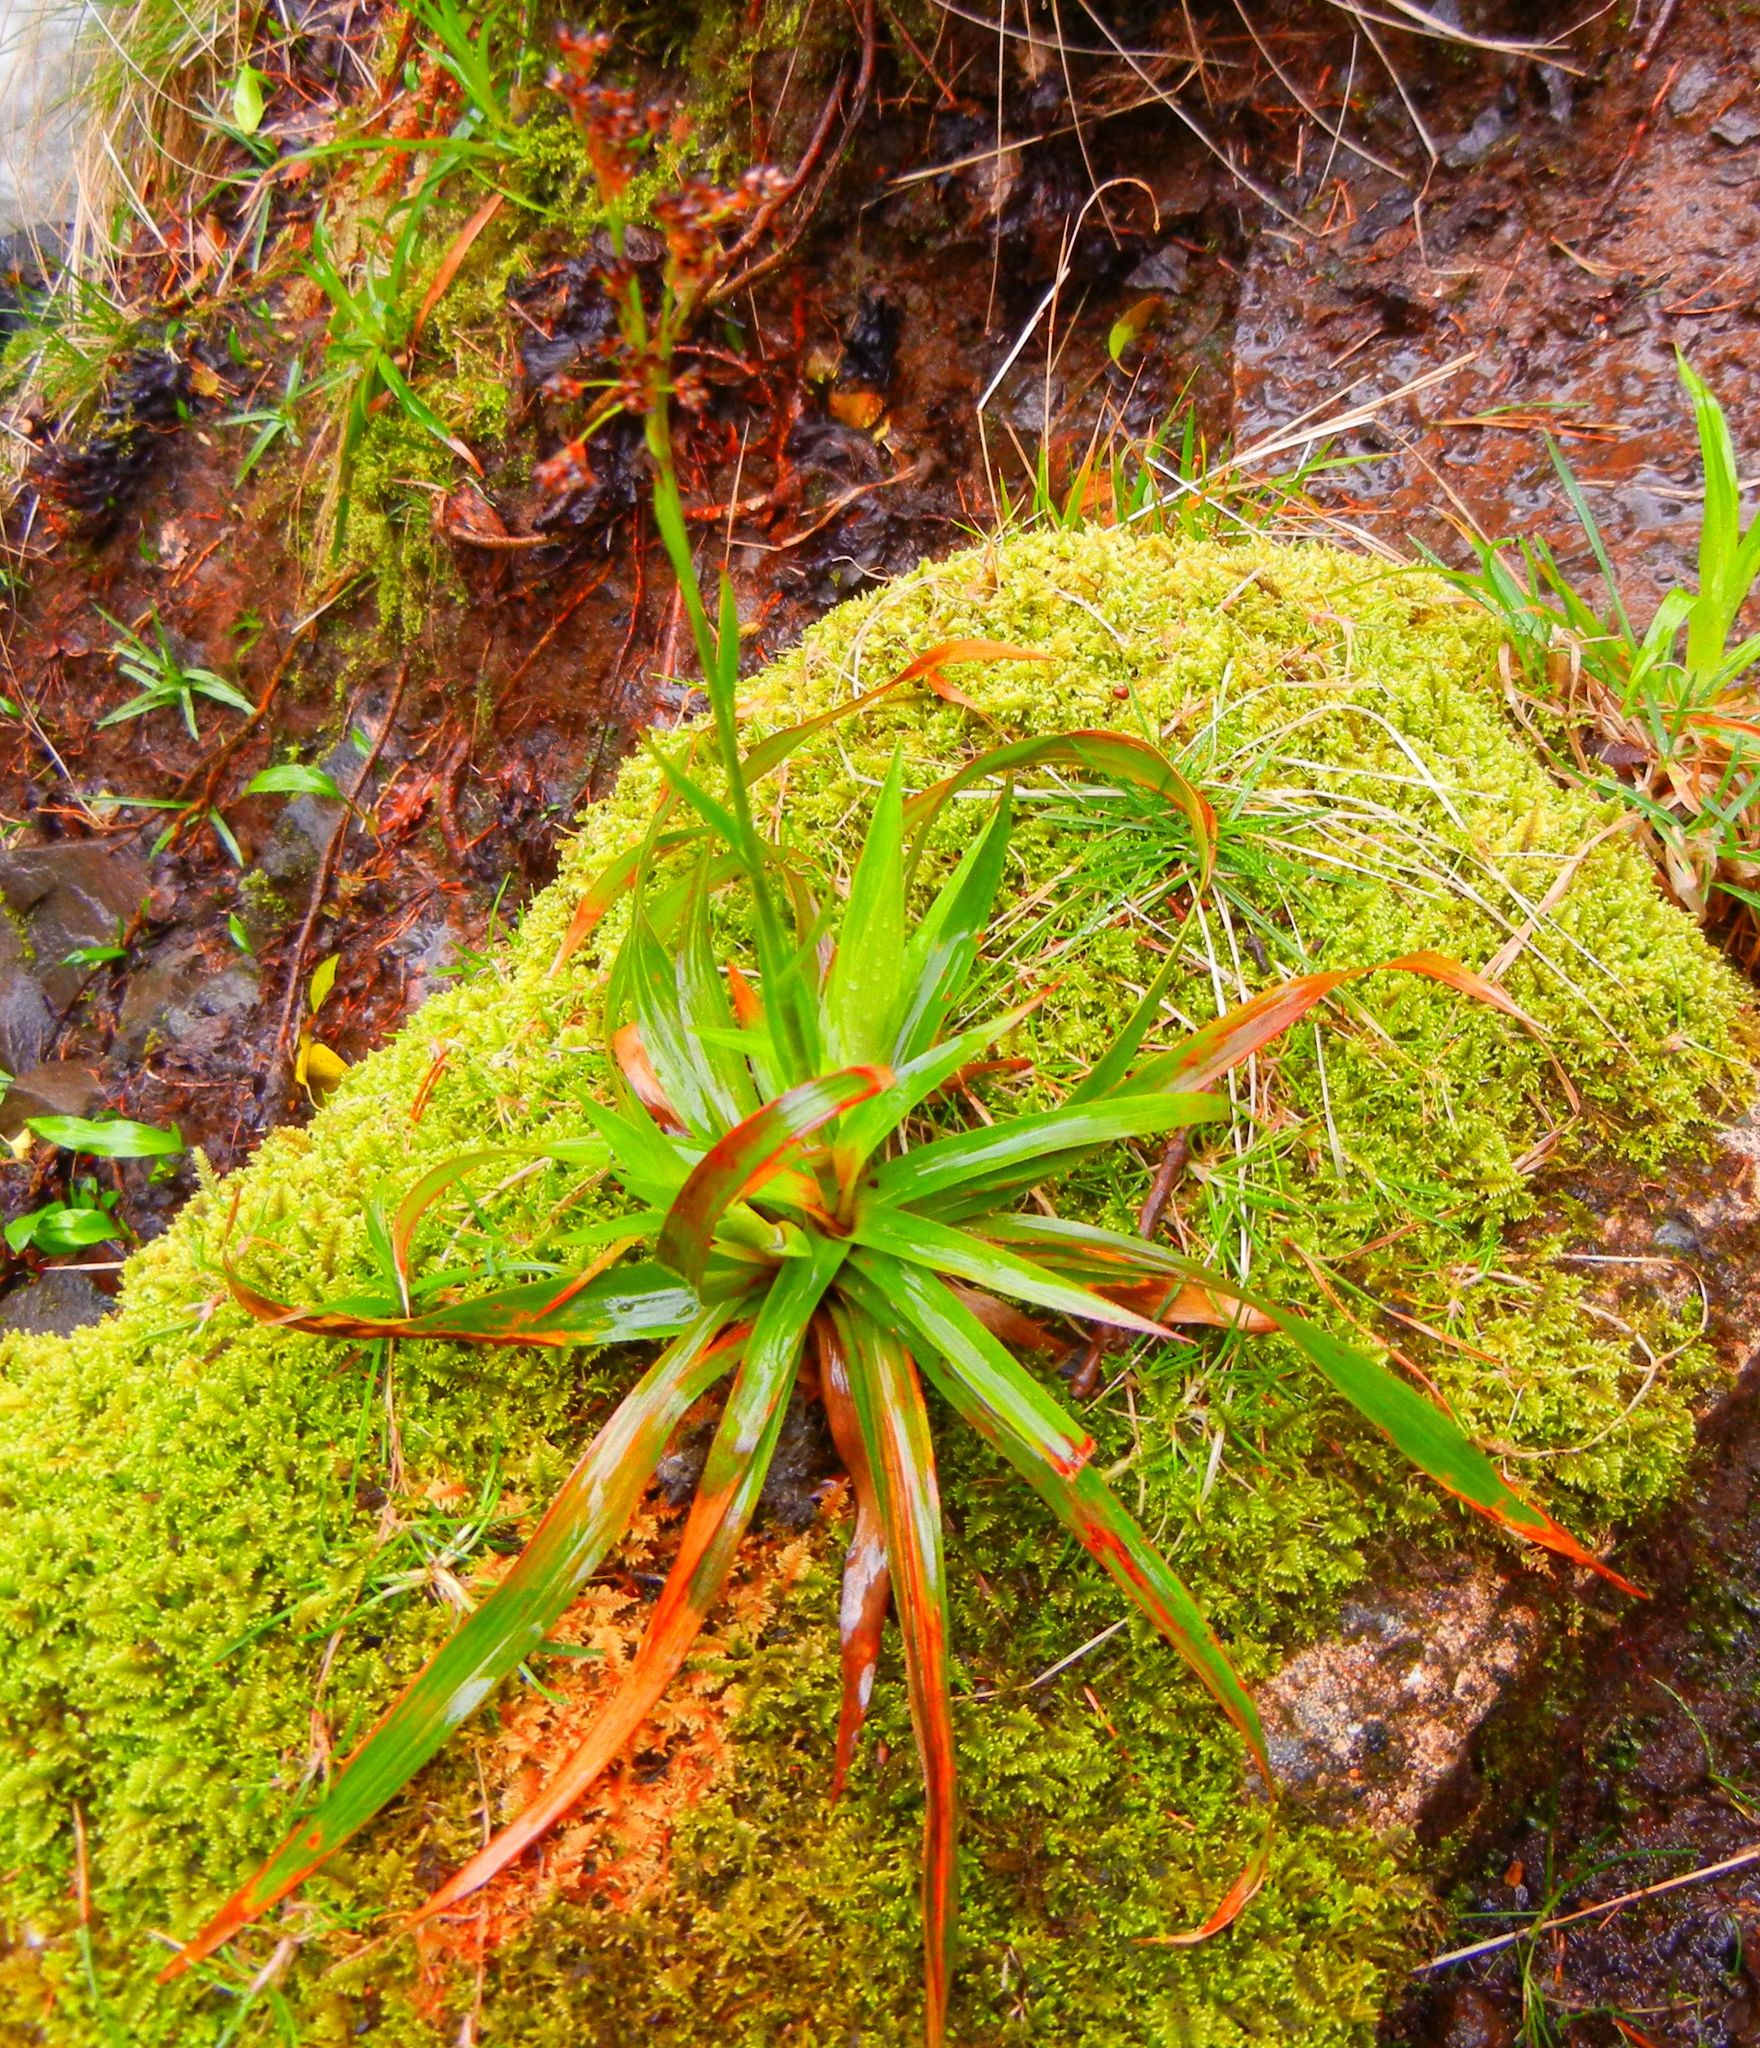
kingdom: Plantae
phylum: Tracheophyta
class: Liliopsida
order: Poales
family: Juncaceae
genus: Luzula
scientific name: Luzula sylvatica
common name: Great wood-rush
